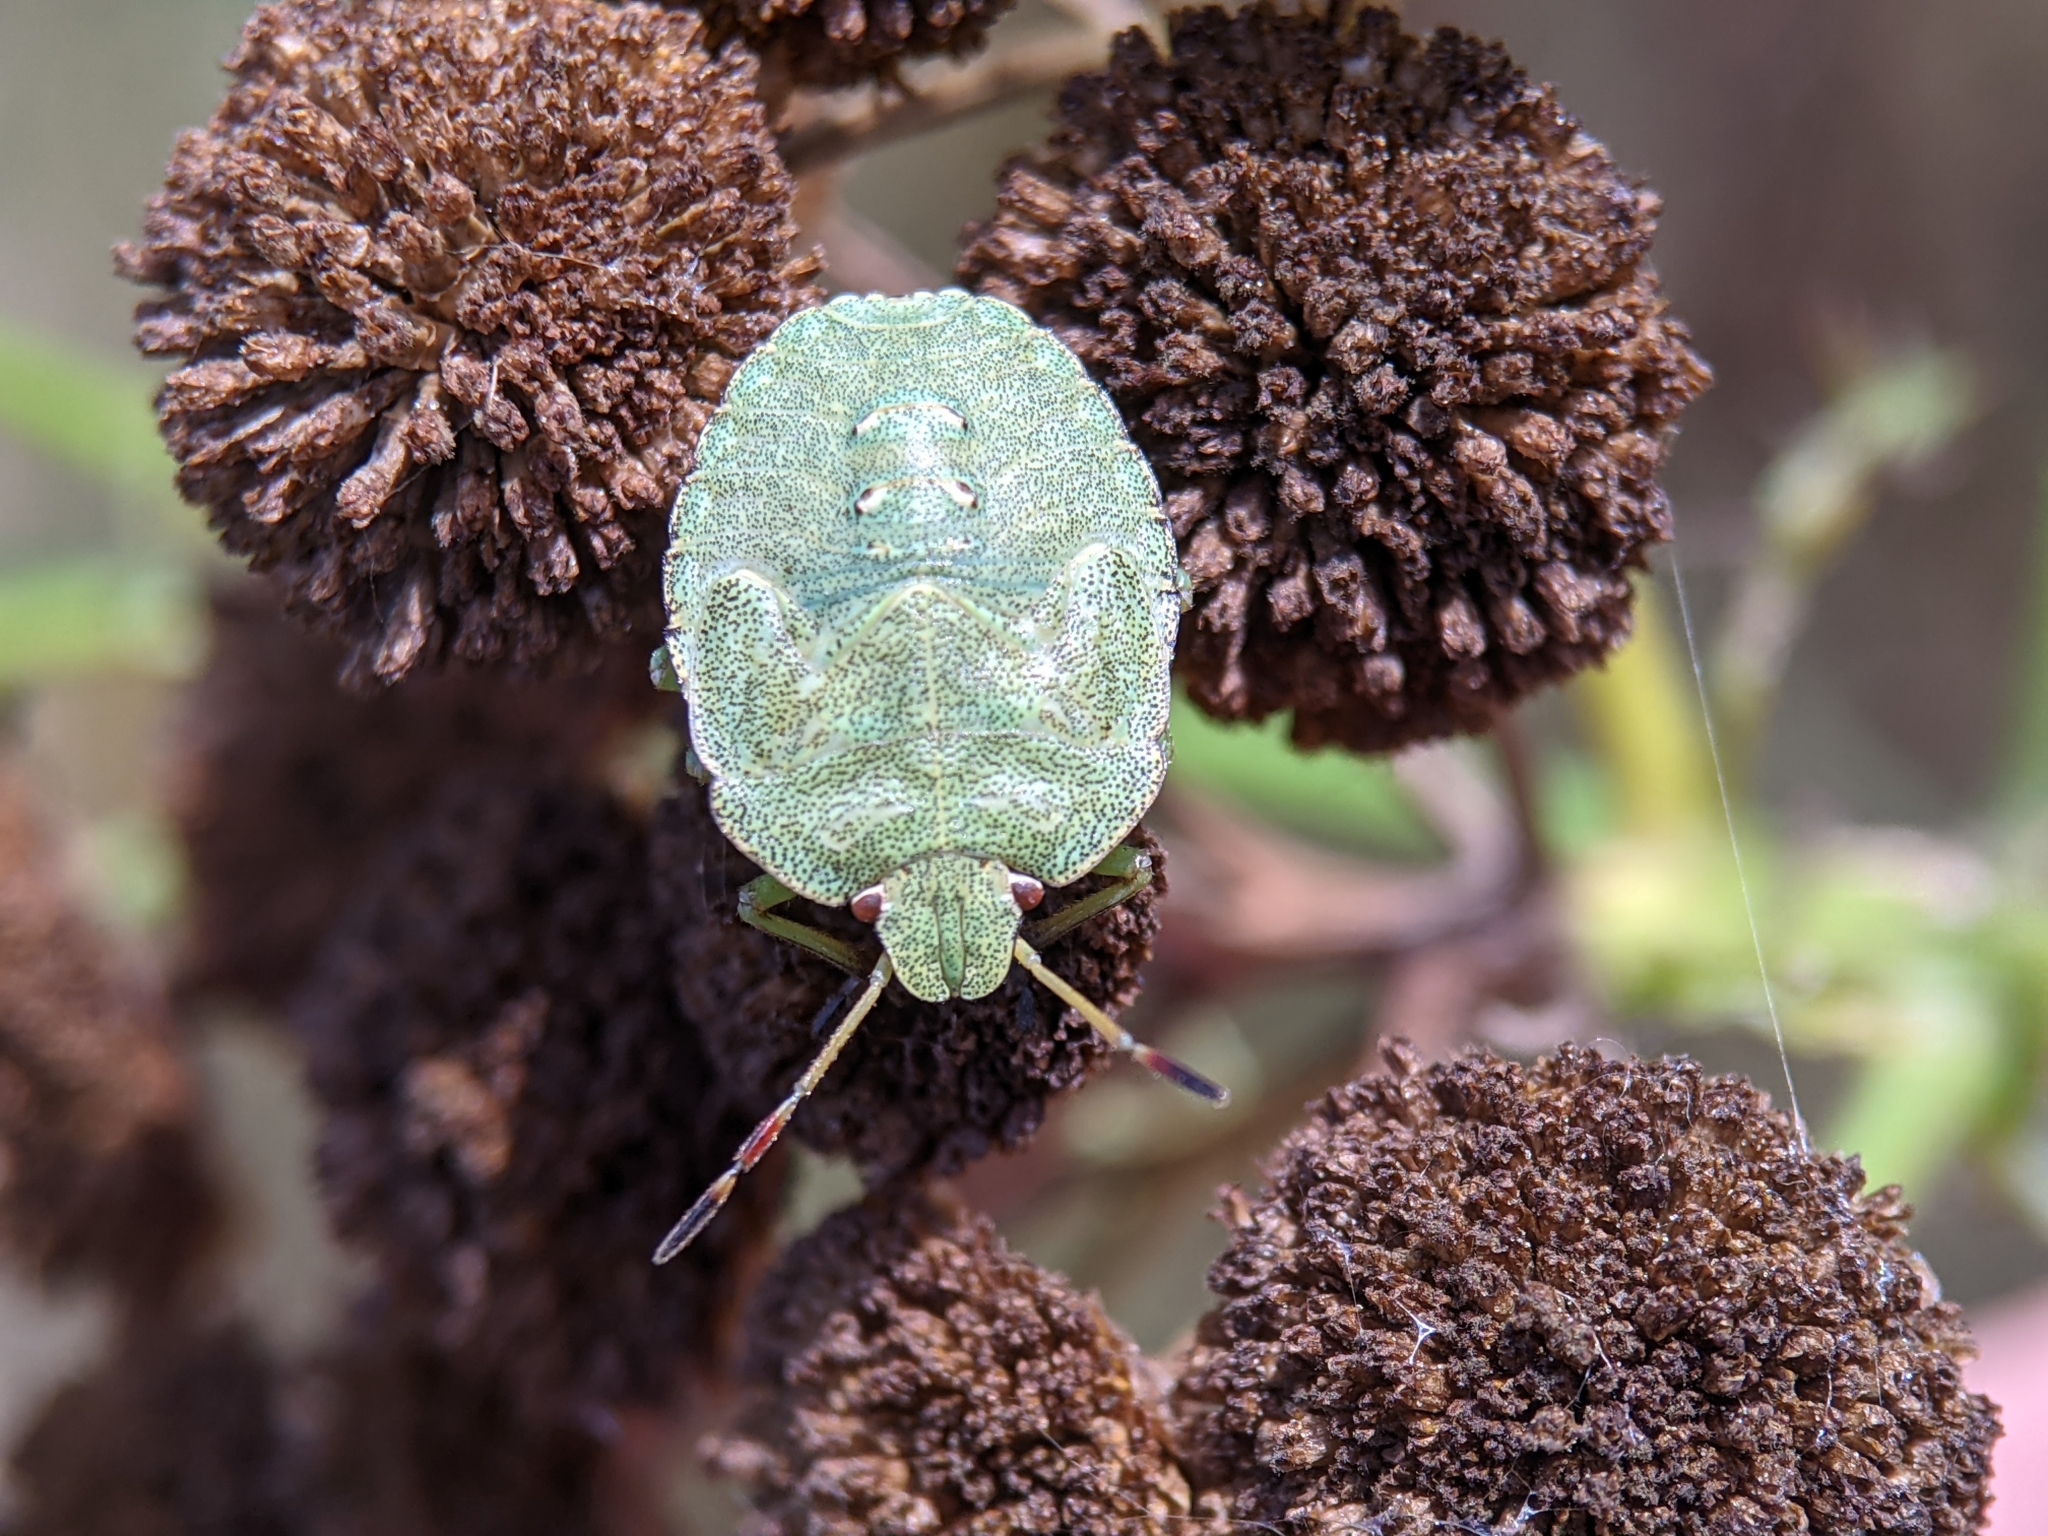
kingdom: Animalia
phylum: Arthropoda
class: Insecta
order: Hemiptera
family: Pentatomidae
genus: Palomena
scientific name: Palomena prasina
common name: Green shieldbug
